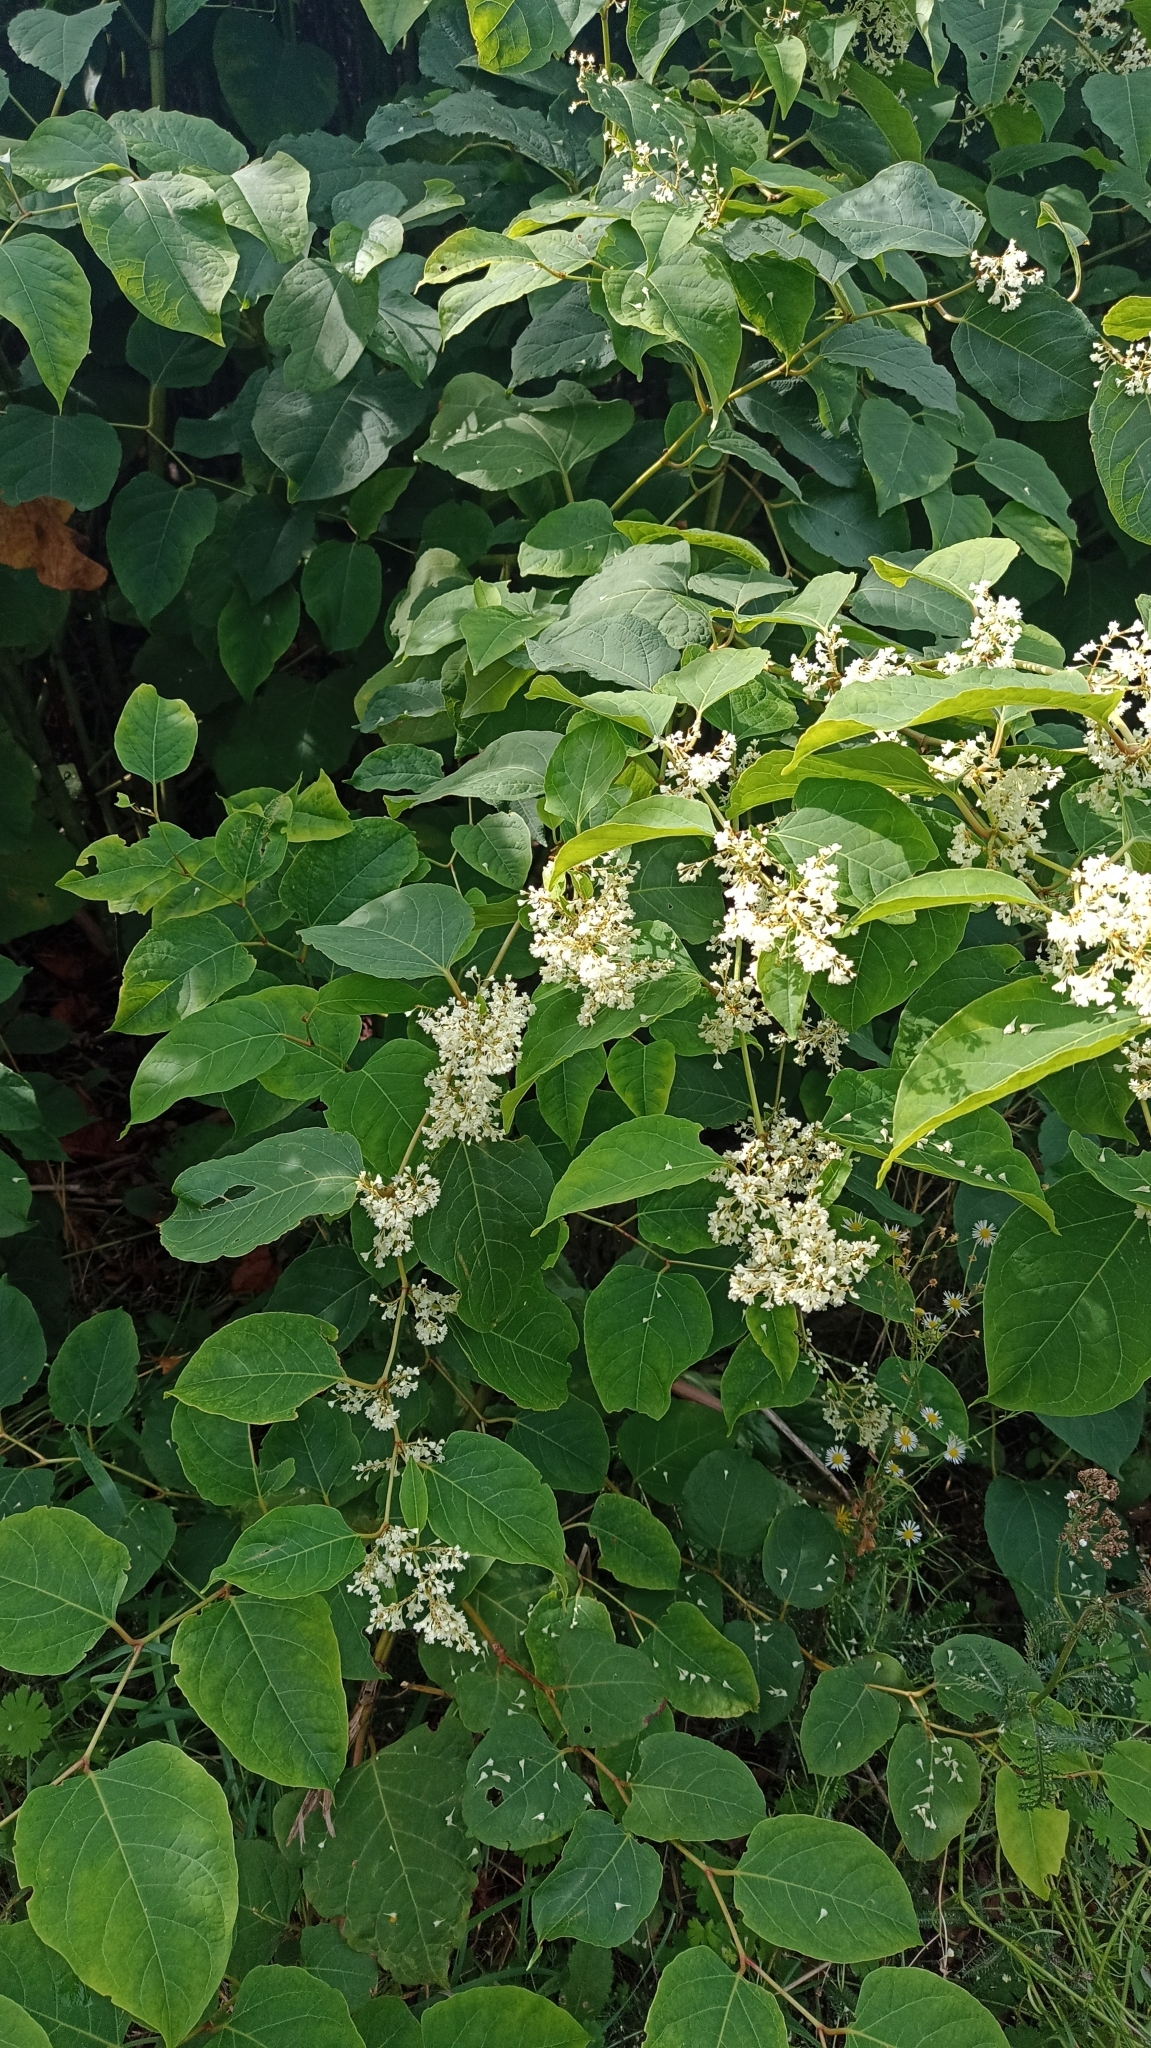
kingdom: Plantae
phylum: Tracheophyta
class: Magnoliopsida
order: Caryophyllales
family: Polygonaceae
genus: Reynoutria
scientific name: Reynoutria japonica
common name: Japanese knotweed
